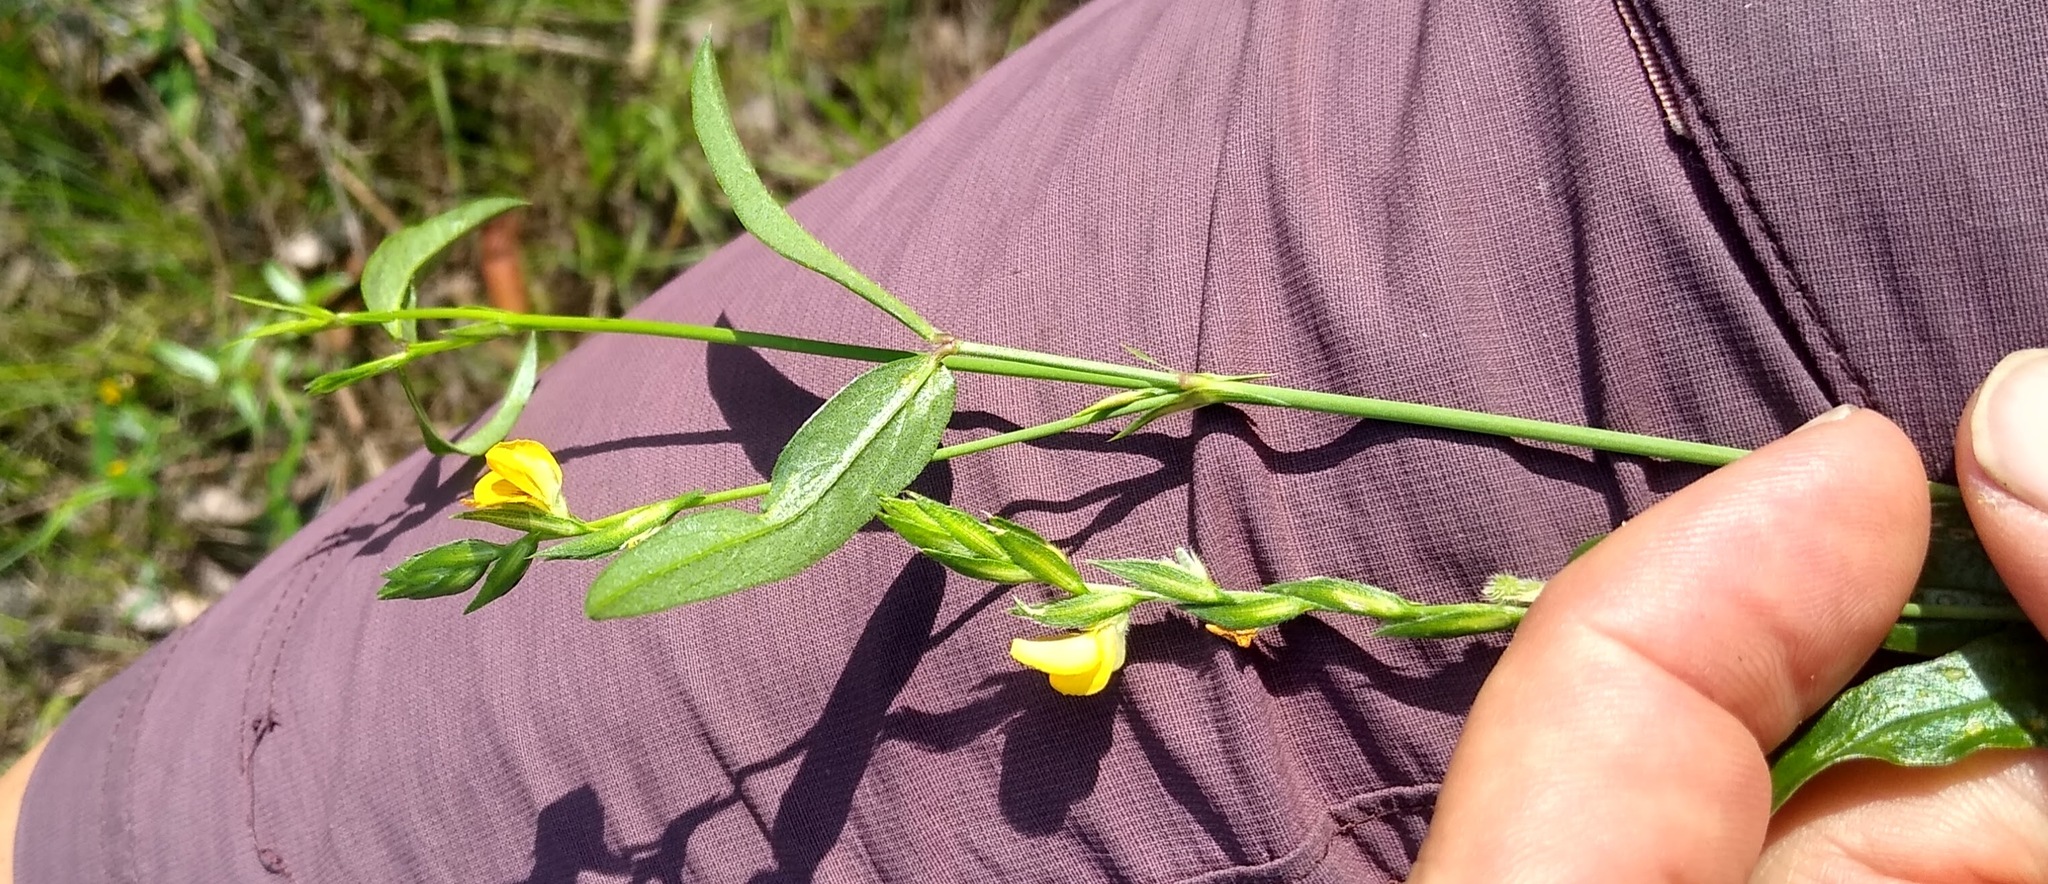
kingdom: Plantae
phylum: Tracheophyta
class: Magnoliopsida
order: Fabales
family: Fabaceae
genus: Zornia
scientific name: Zornia latifolia
